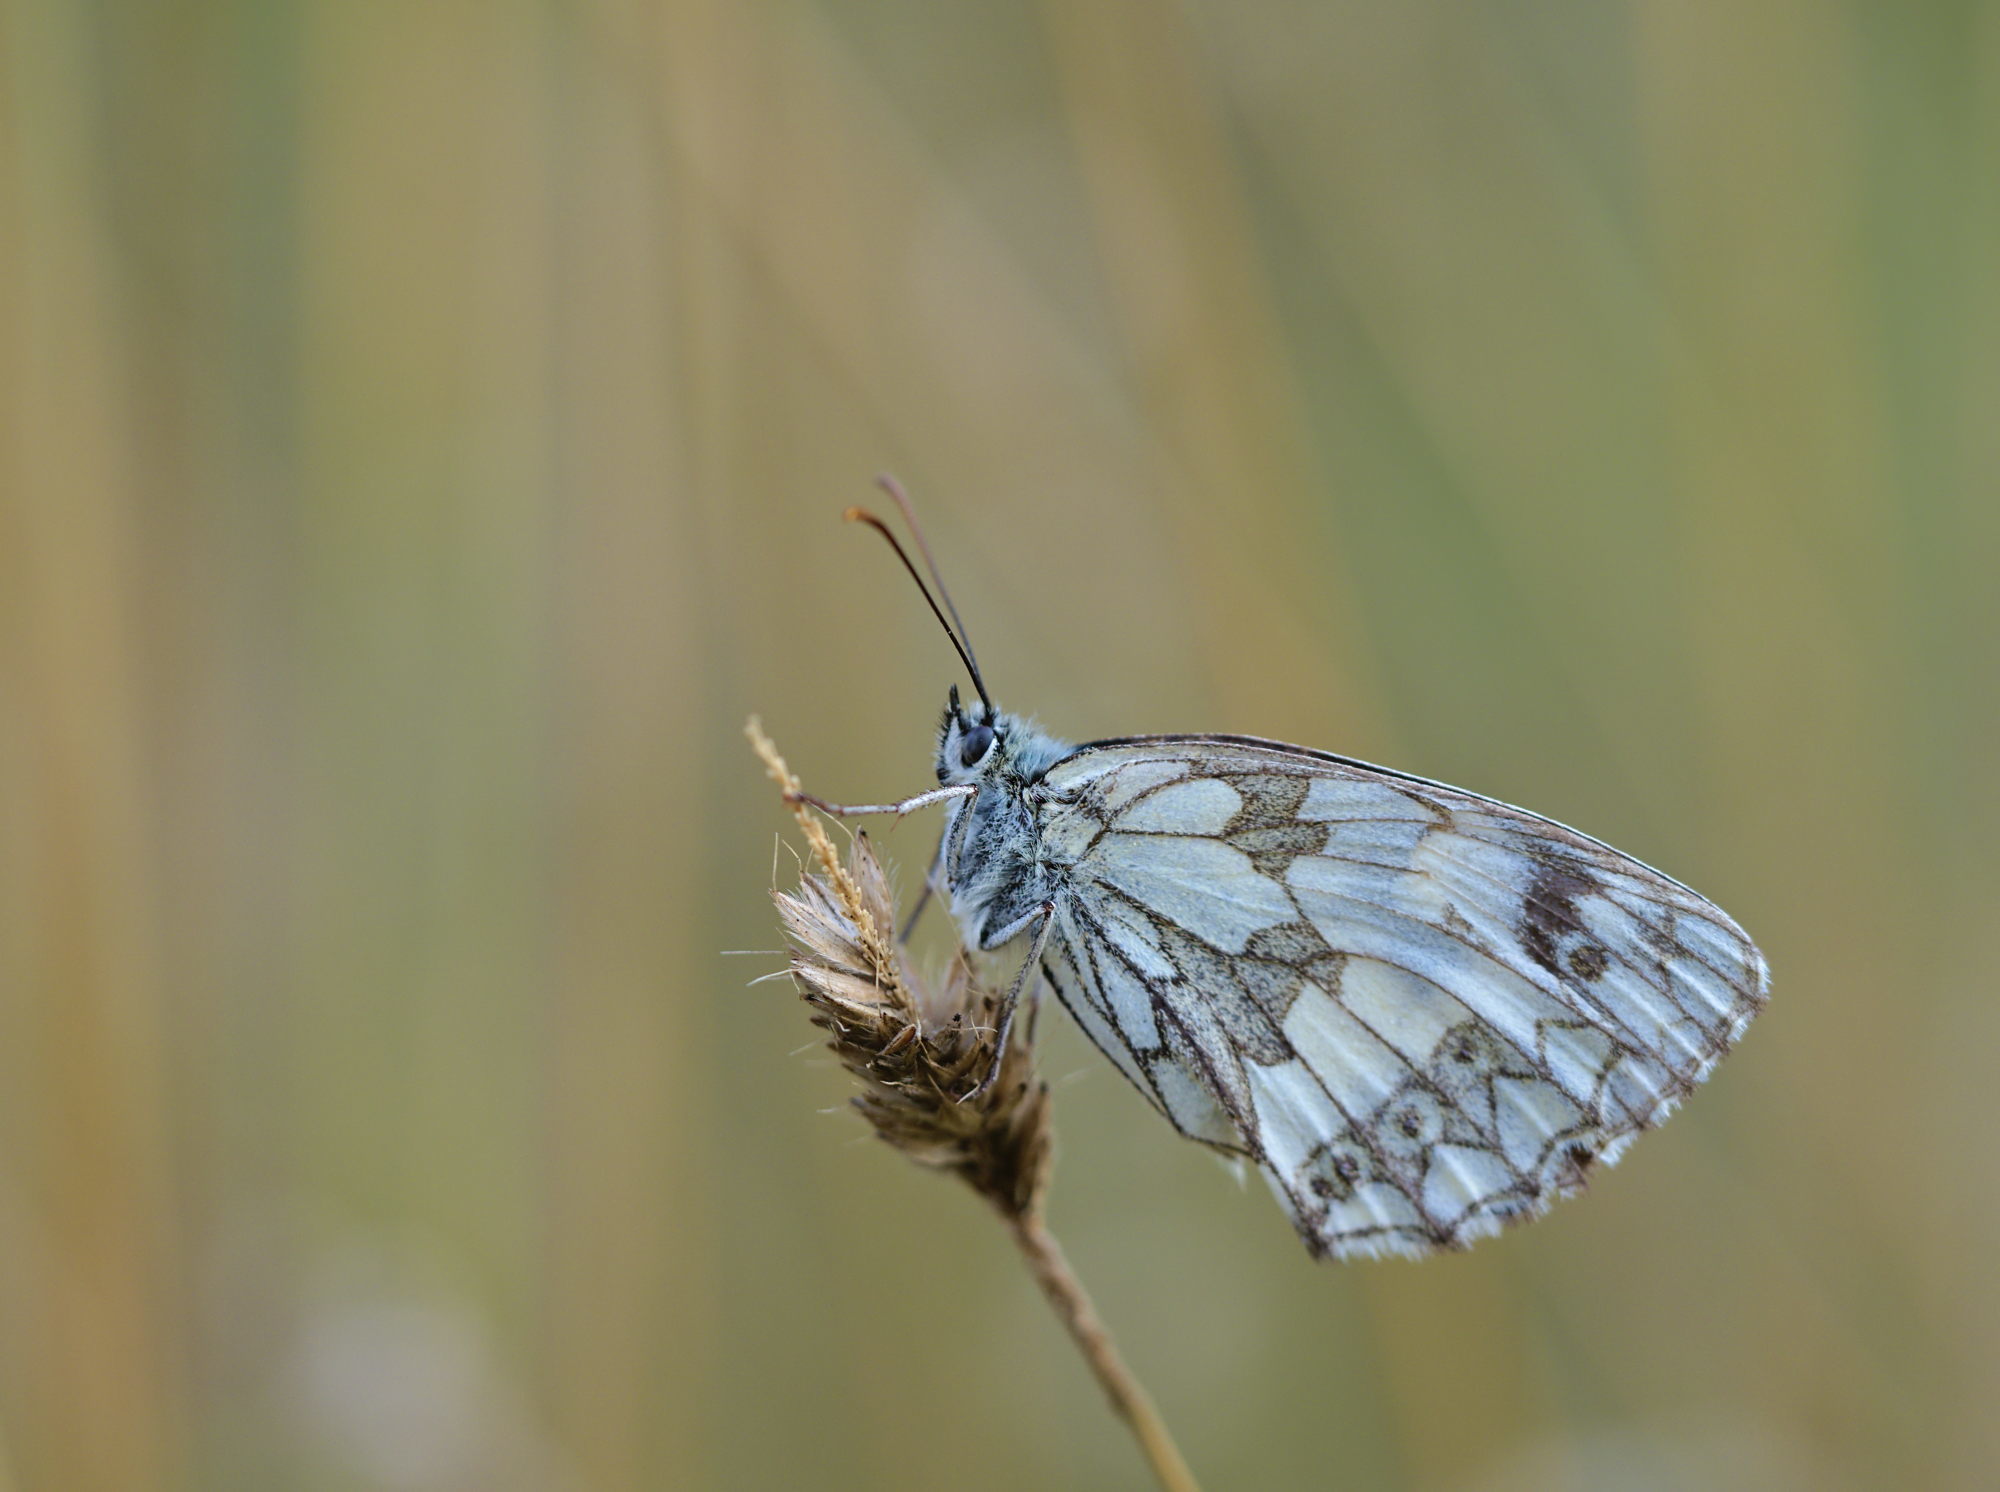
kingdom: Animalia
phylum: Arthropoda
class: Insecta
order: Lepidoptera
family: Nymphalidae
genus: Melanargia
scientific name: Melanargia galathea
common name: Marbled white
